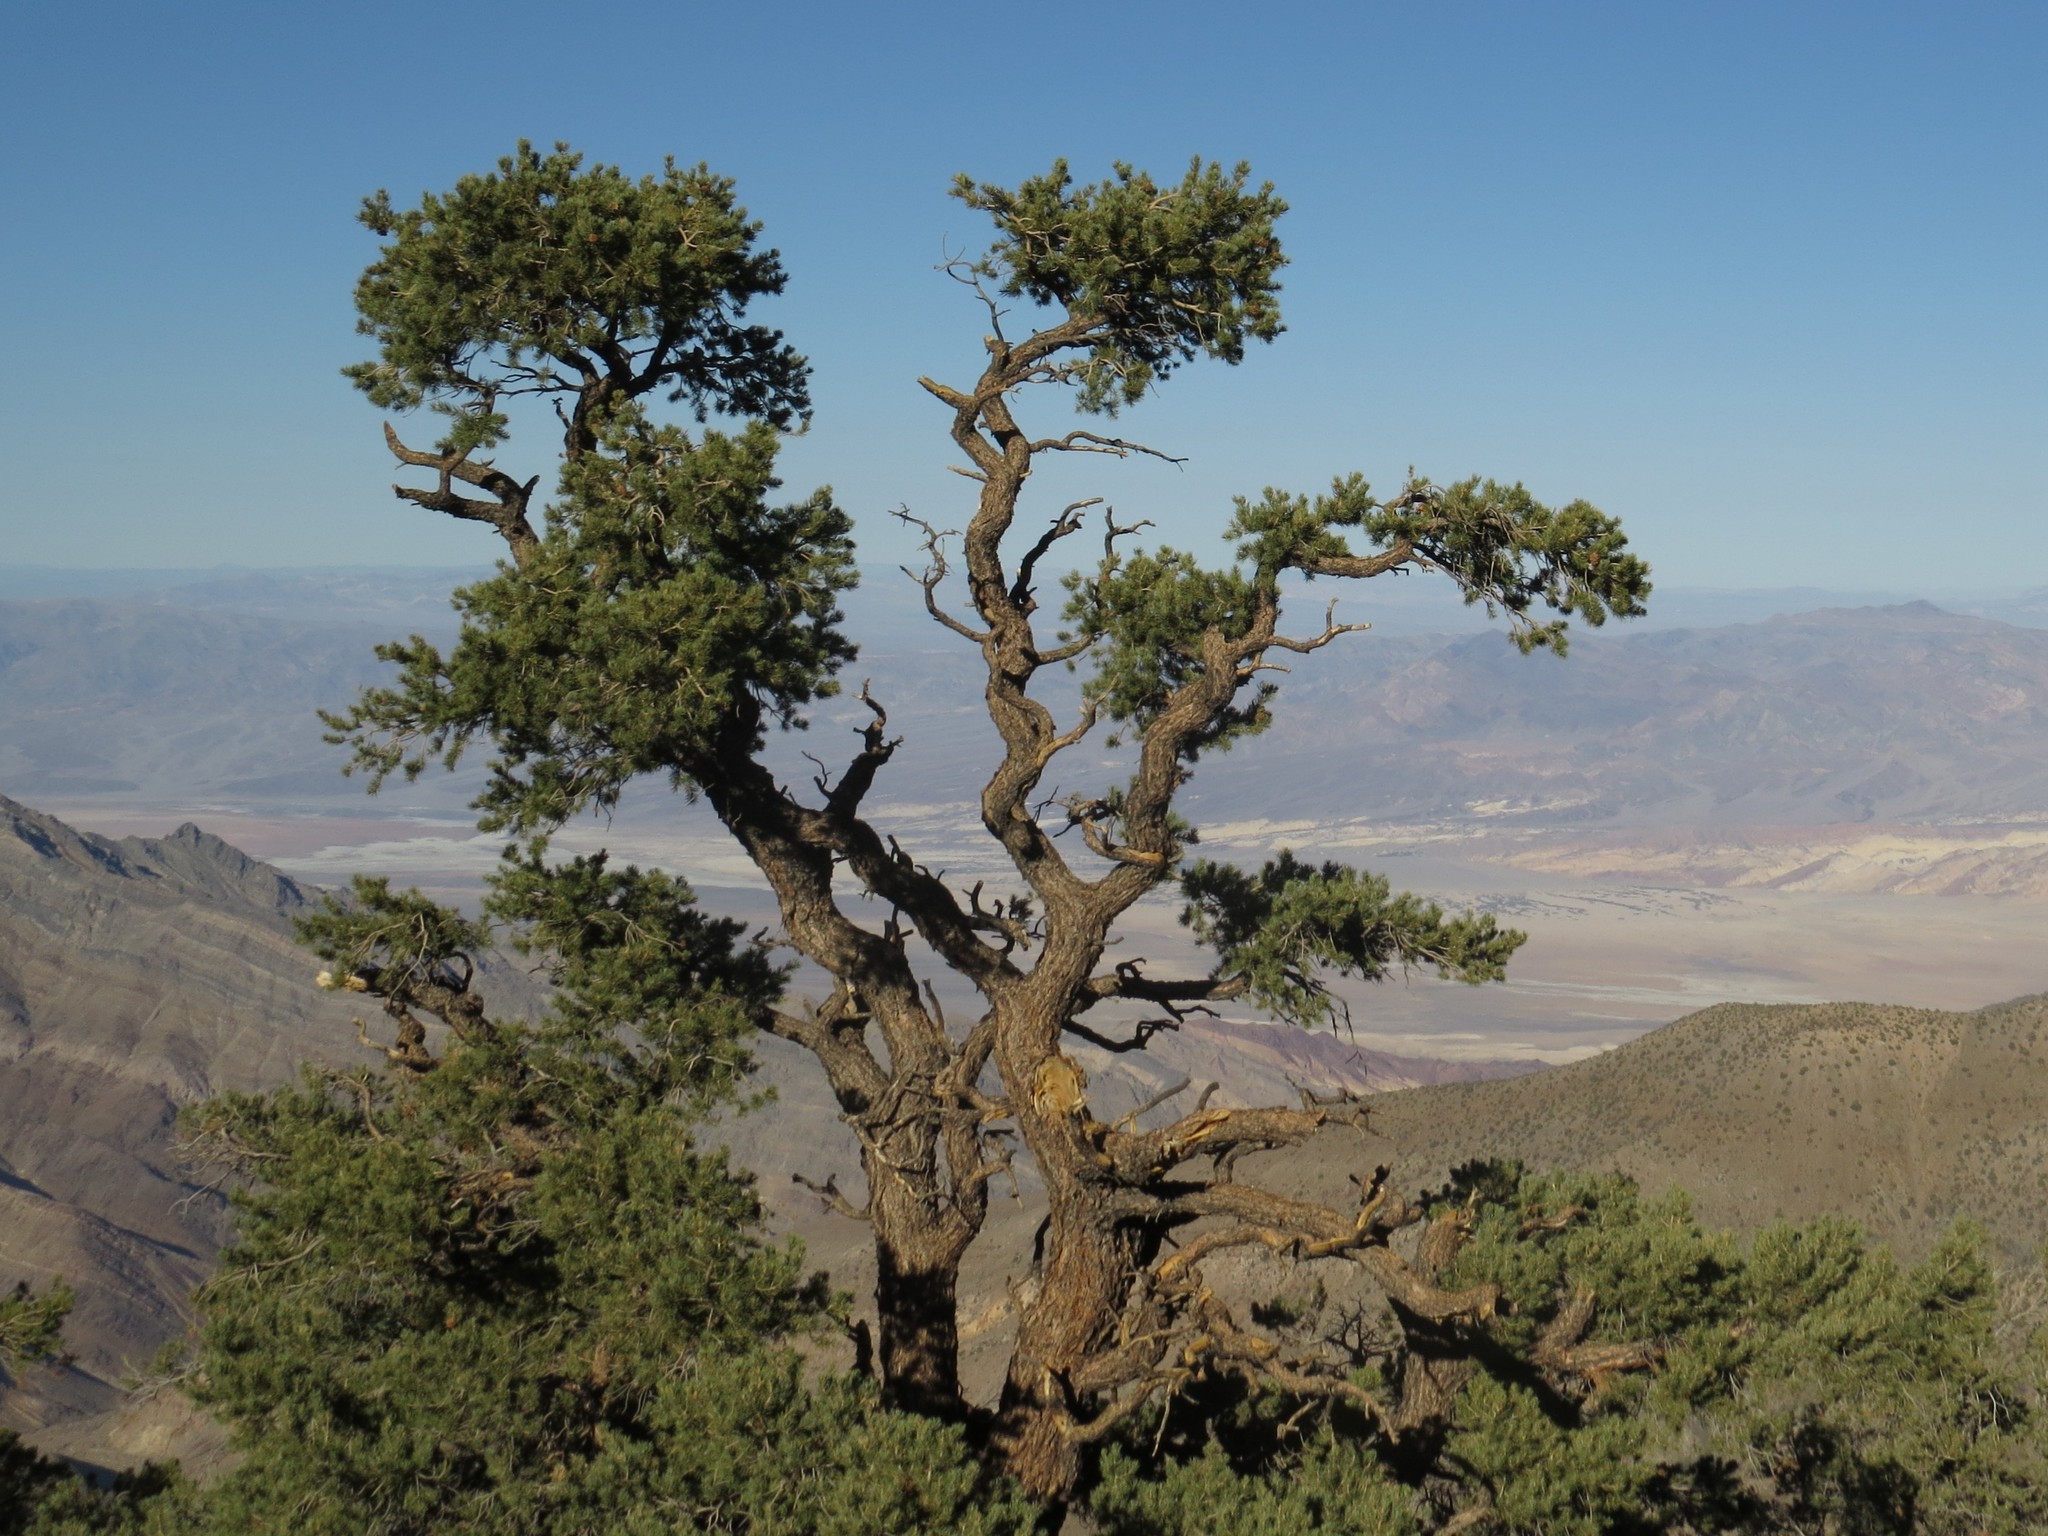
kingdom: Plantae
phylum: Tracheophyta
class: Pinopsida
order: Pinales
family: Pinaceae
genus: Pinus
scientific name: Pinus monophylla
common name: One-leaved nut pine
